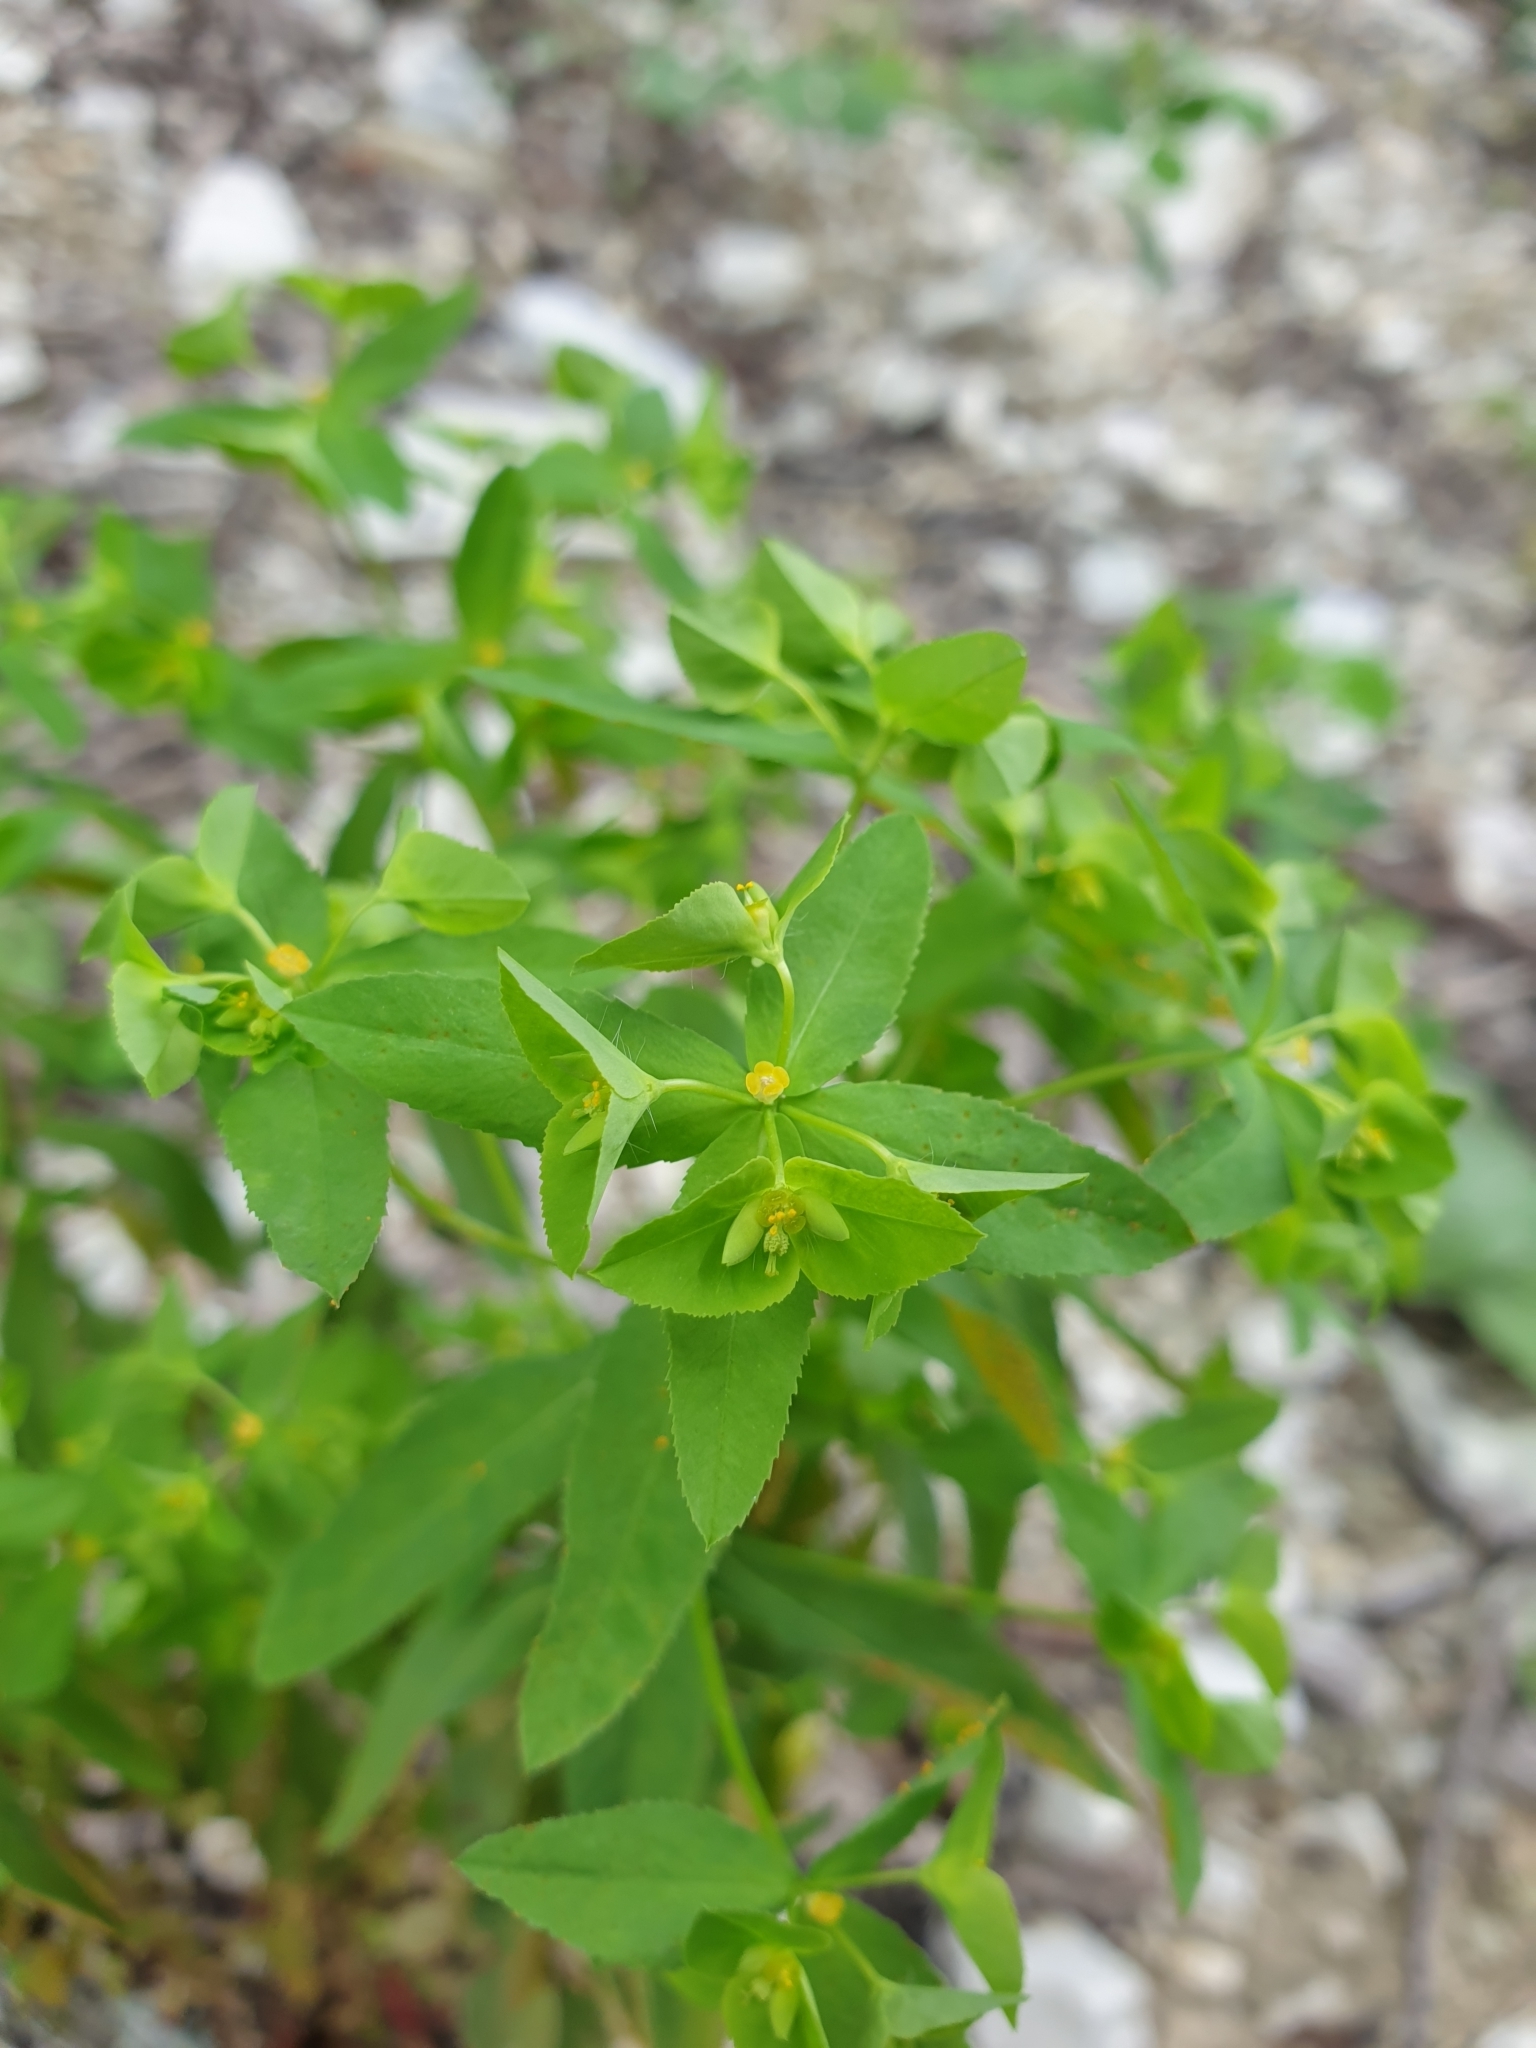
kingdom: Plantae
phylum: Tracheophyta
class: Magnoliopsida
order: Malpighiales
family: Euphorbiaceae
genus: Euphorbia
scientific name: Euphorbia stricta
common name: Upright spurge
